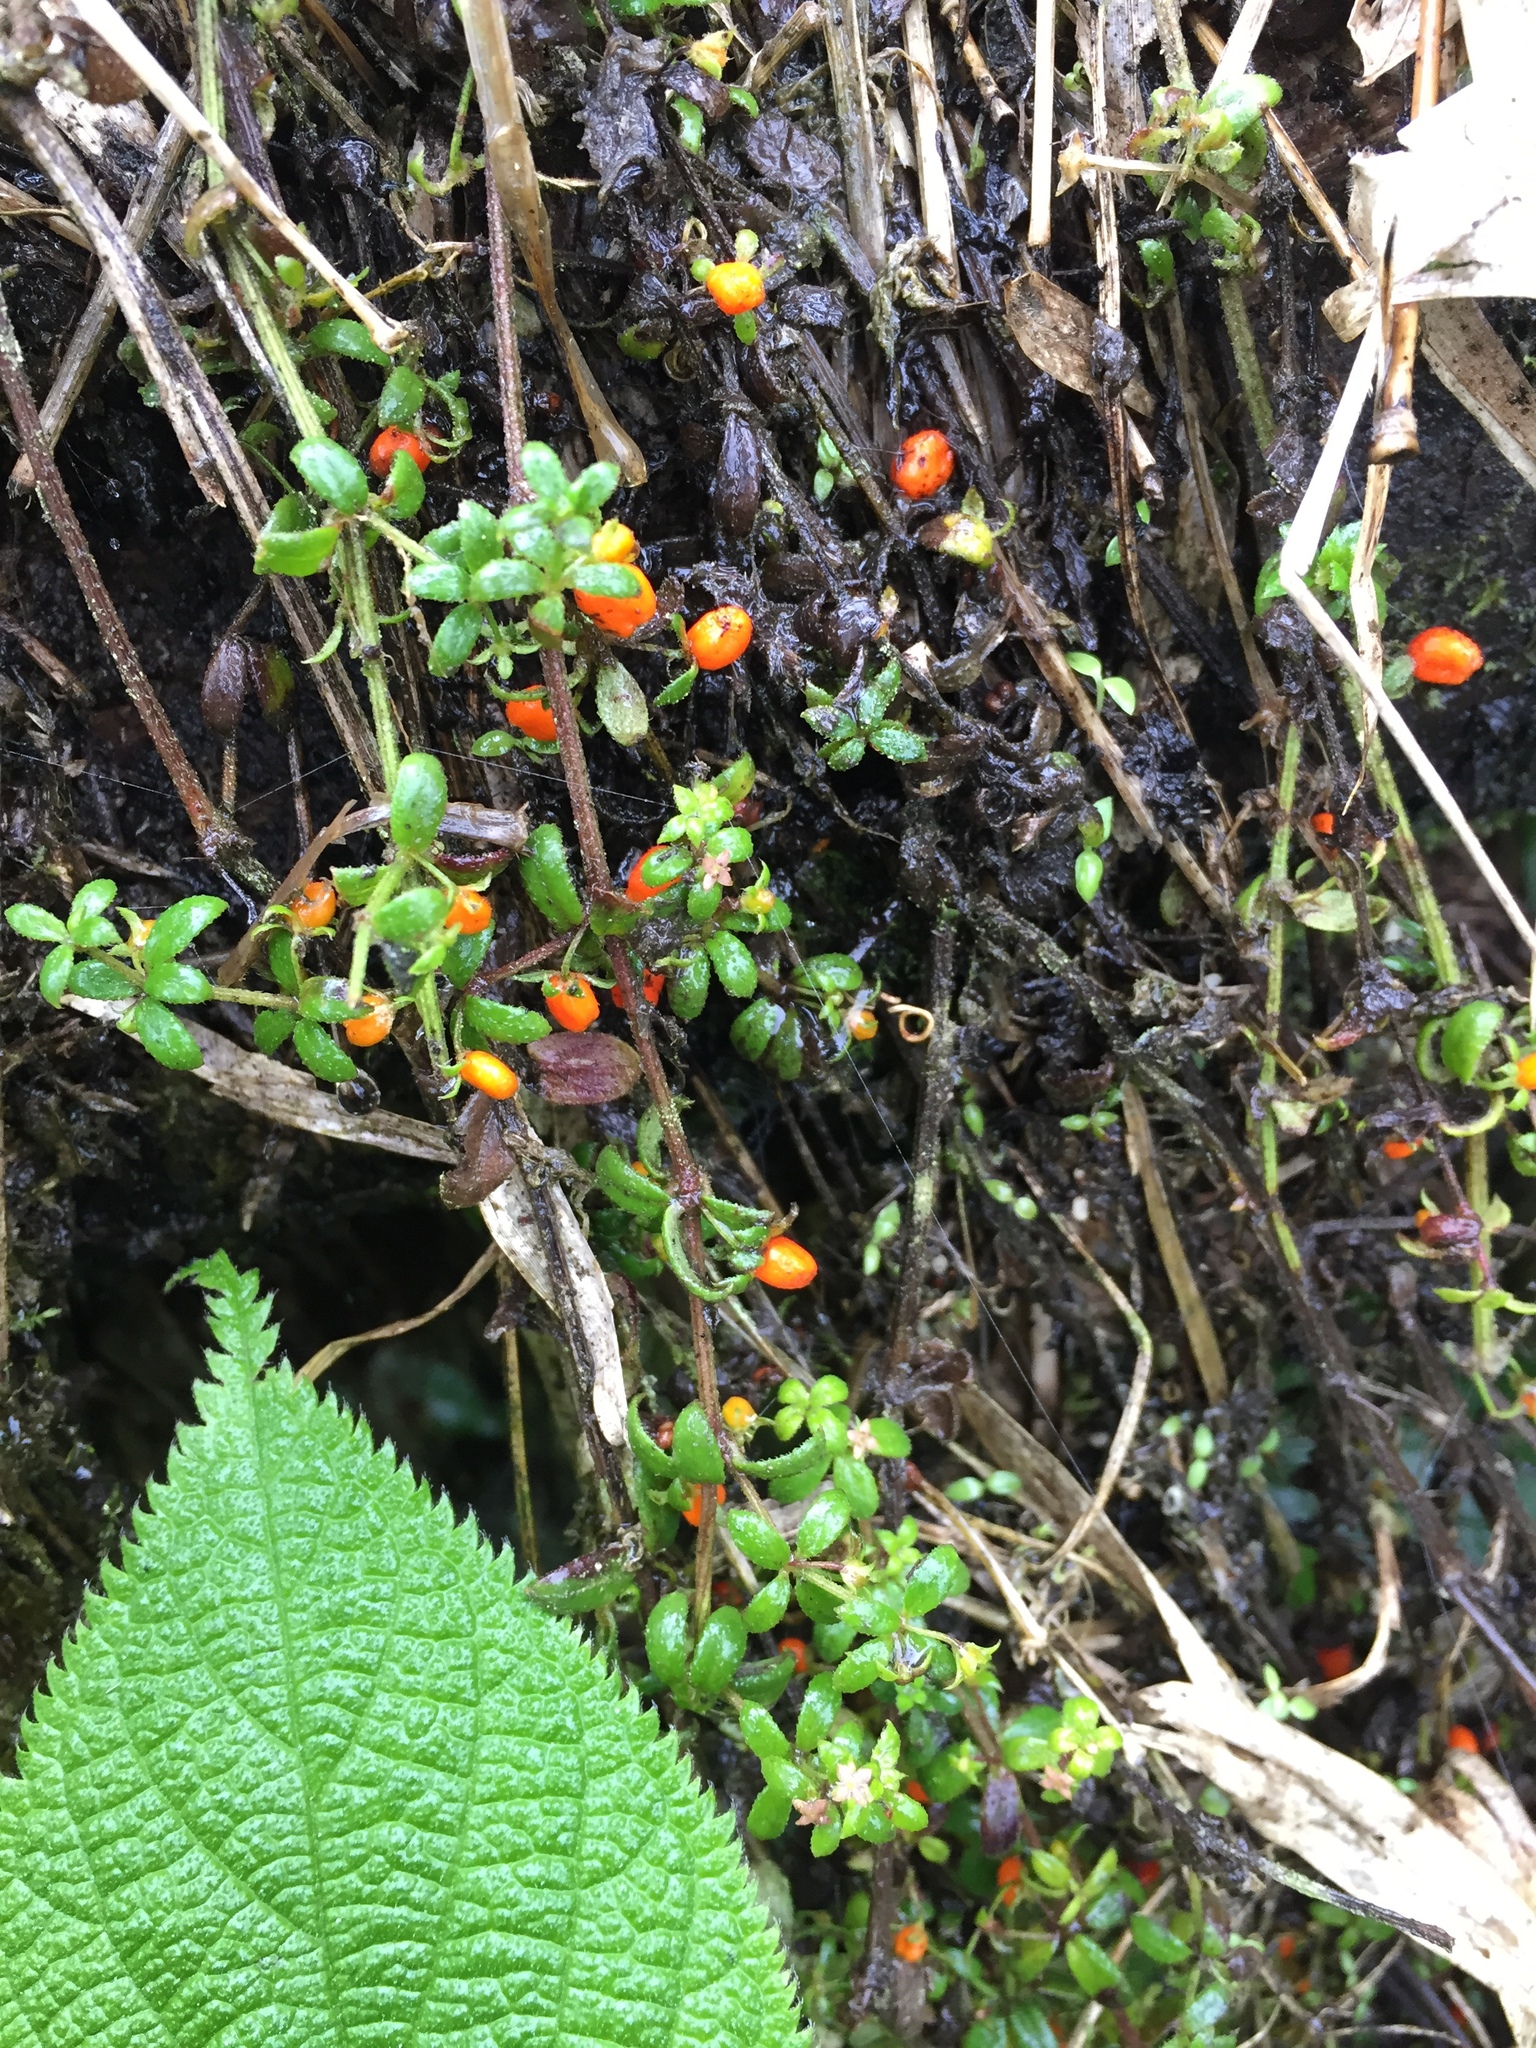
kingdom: Plantae
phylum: Tracheophyta
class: Magnoliopsida
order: Gentianales
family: Rubiaceae
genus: Galium
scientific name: Galium hypocarpium
